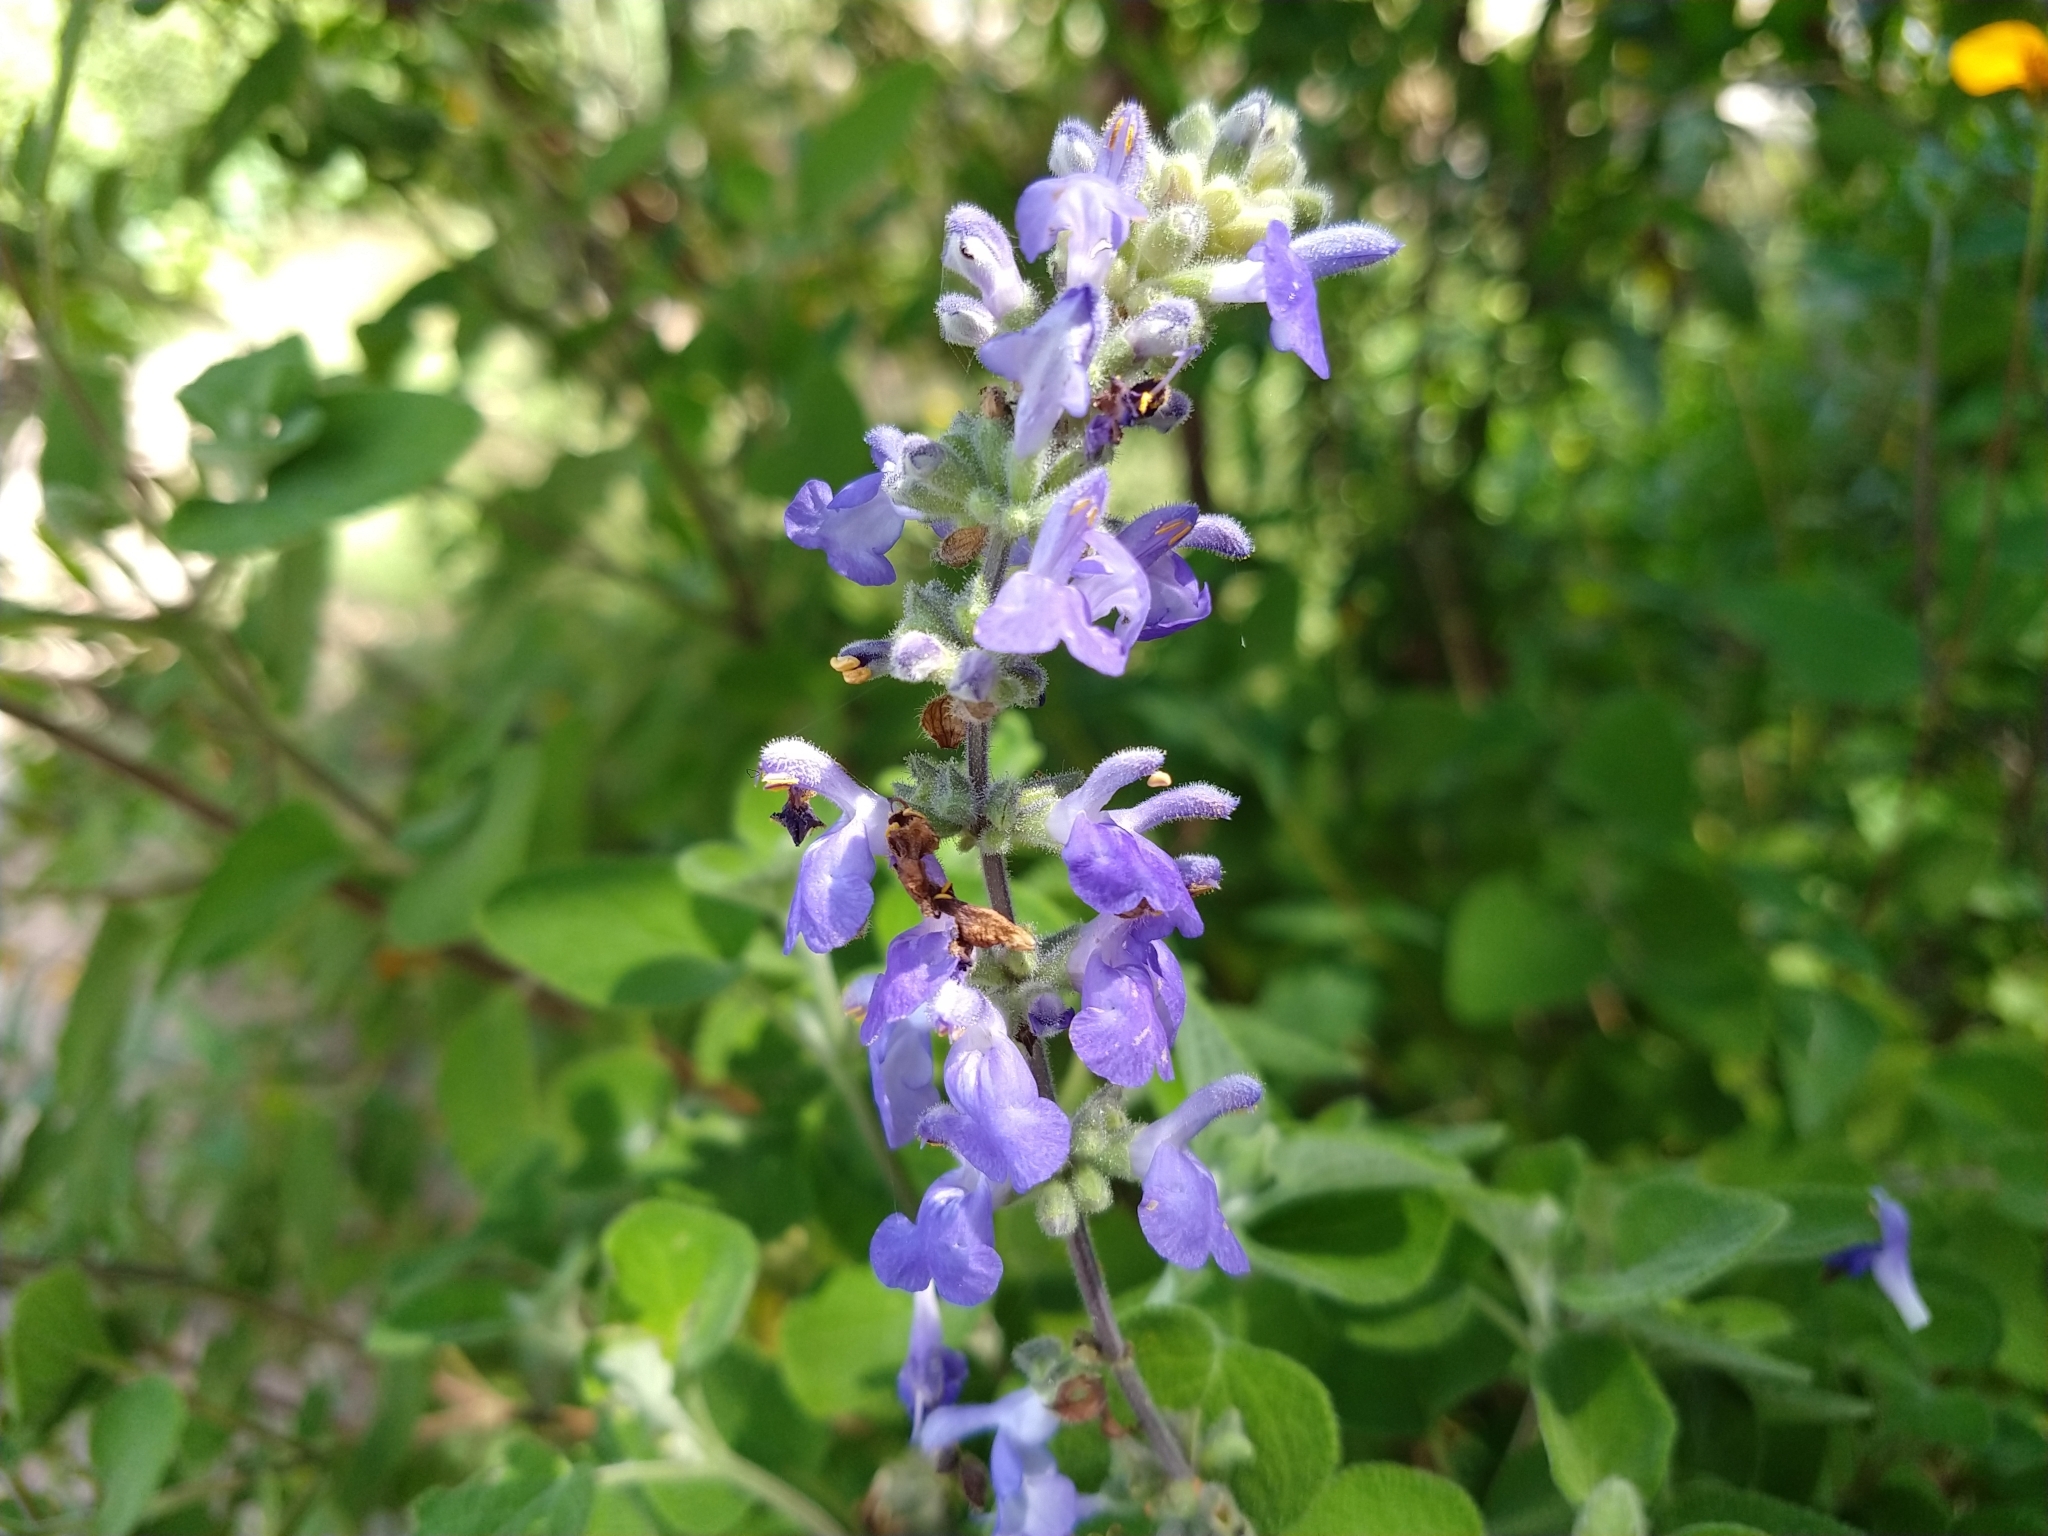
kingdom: Plantae
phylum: Tracheophyta
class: Magnoliopsida
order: Lamiales
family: Lamiaceae
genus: Salvia
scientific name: Salvia melissodora
